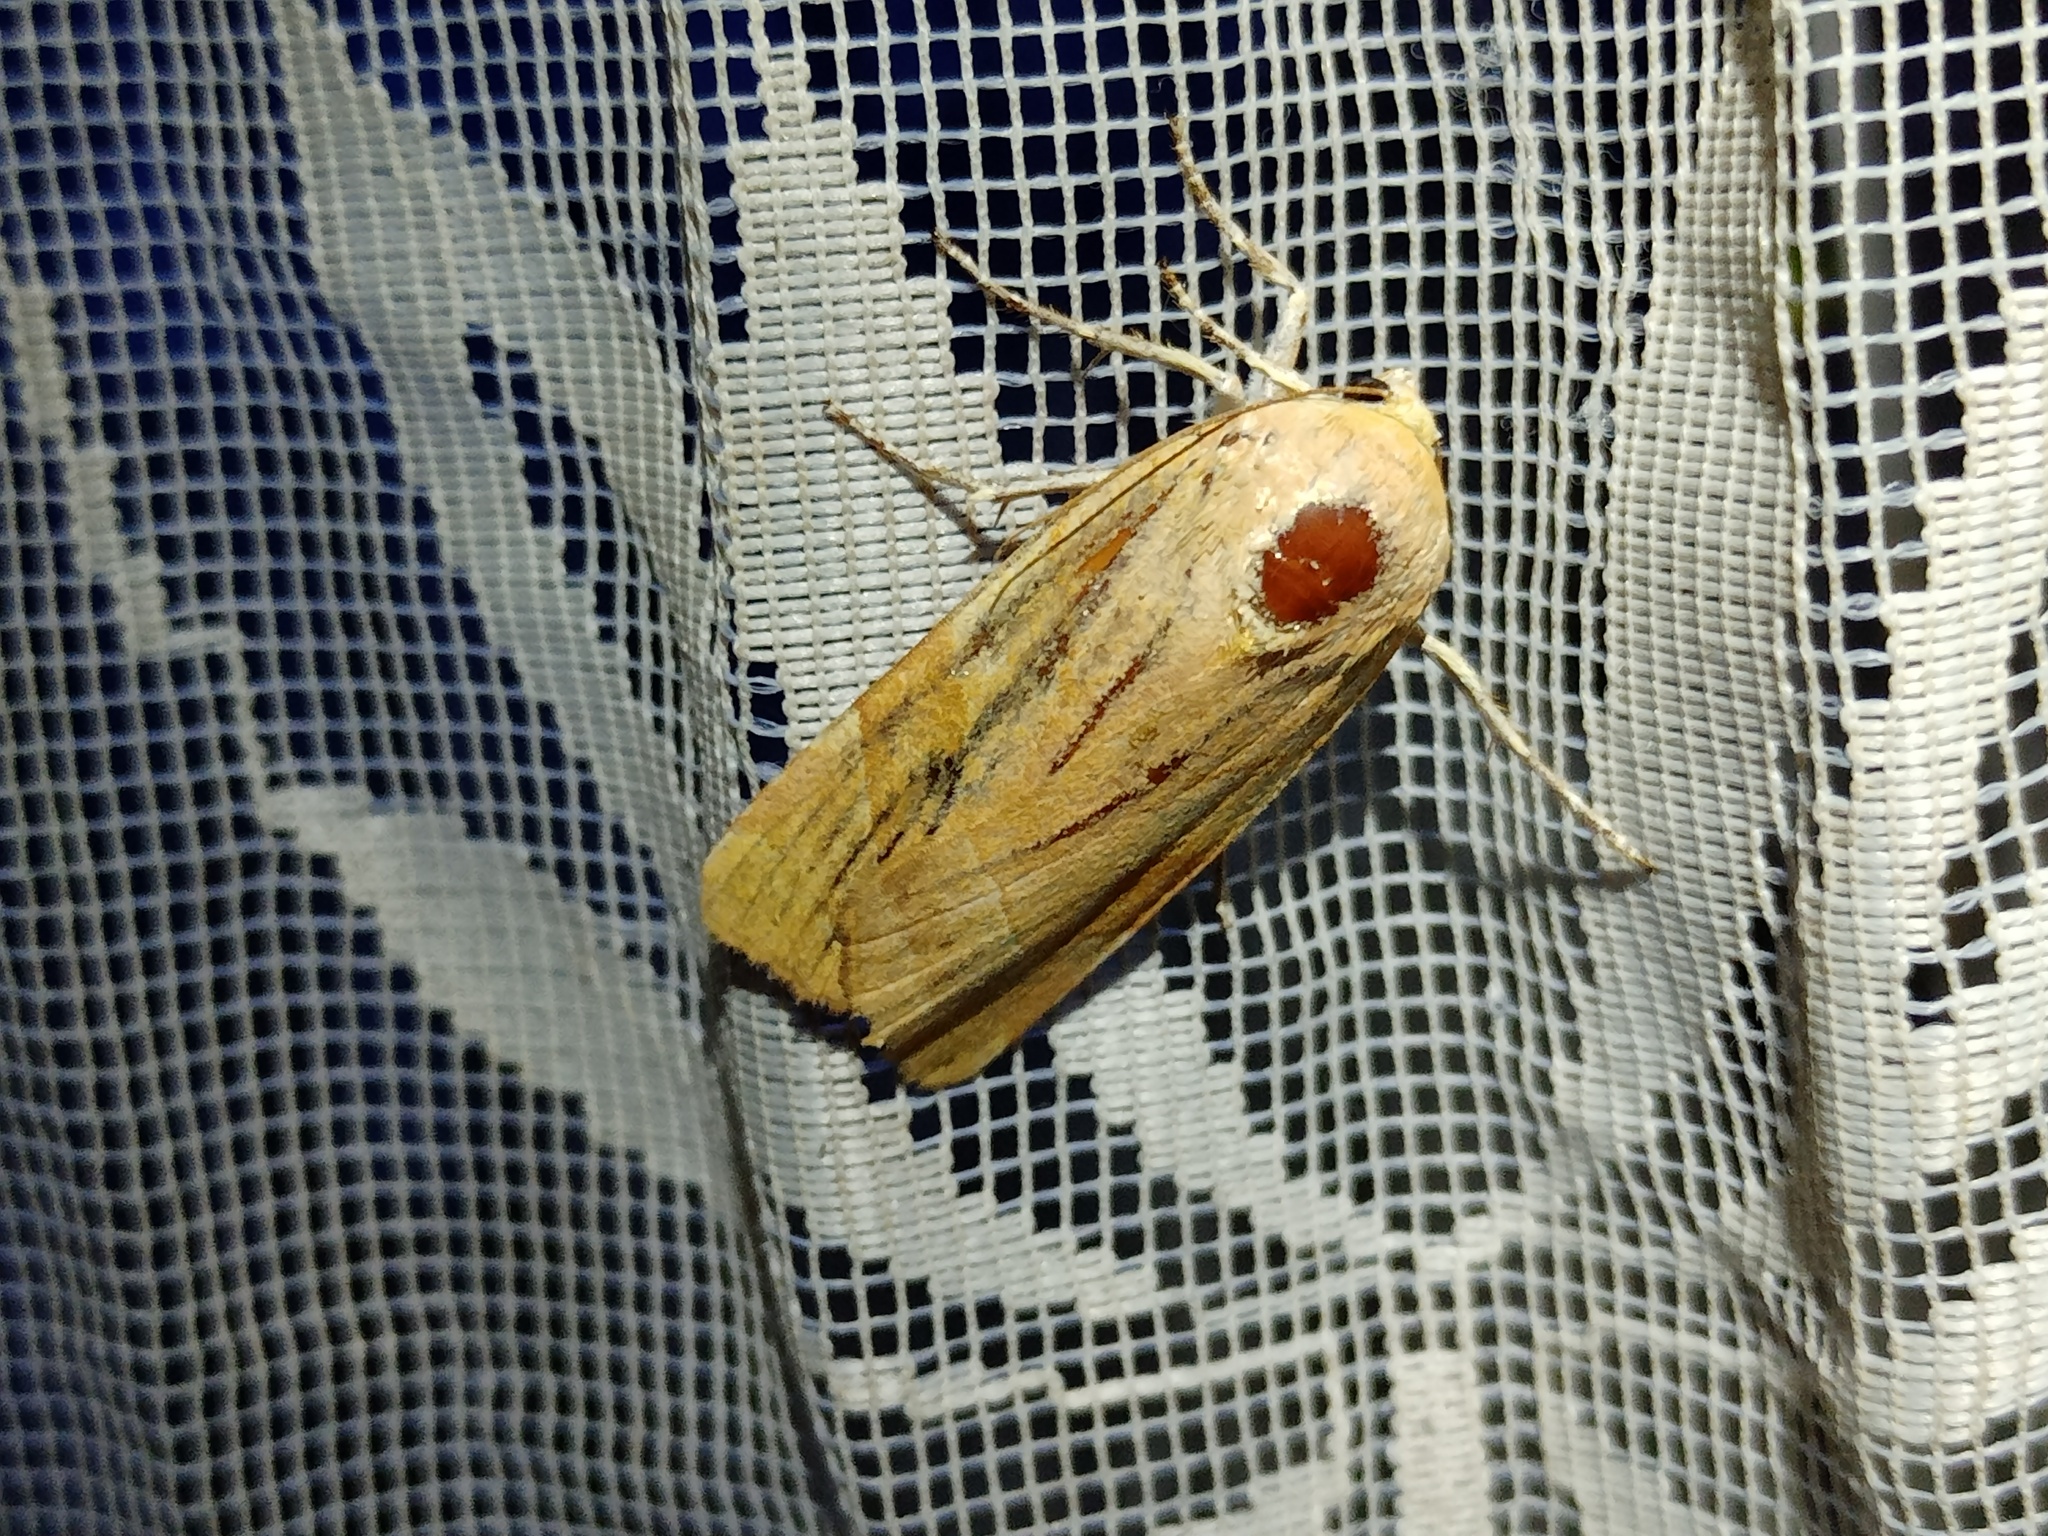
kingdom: Animalia
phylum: Arthropoda
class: Insecta
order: Lepidoptera
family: Noctuidae
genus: Noctua
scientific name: Noctua fimbriata
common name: Broad-bordered yellow underwing
